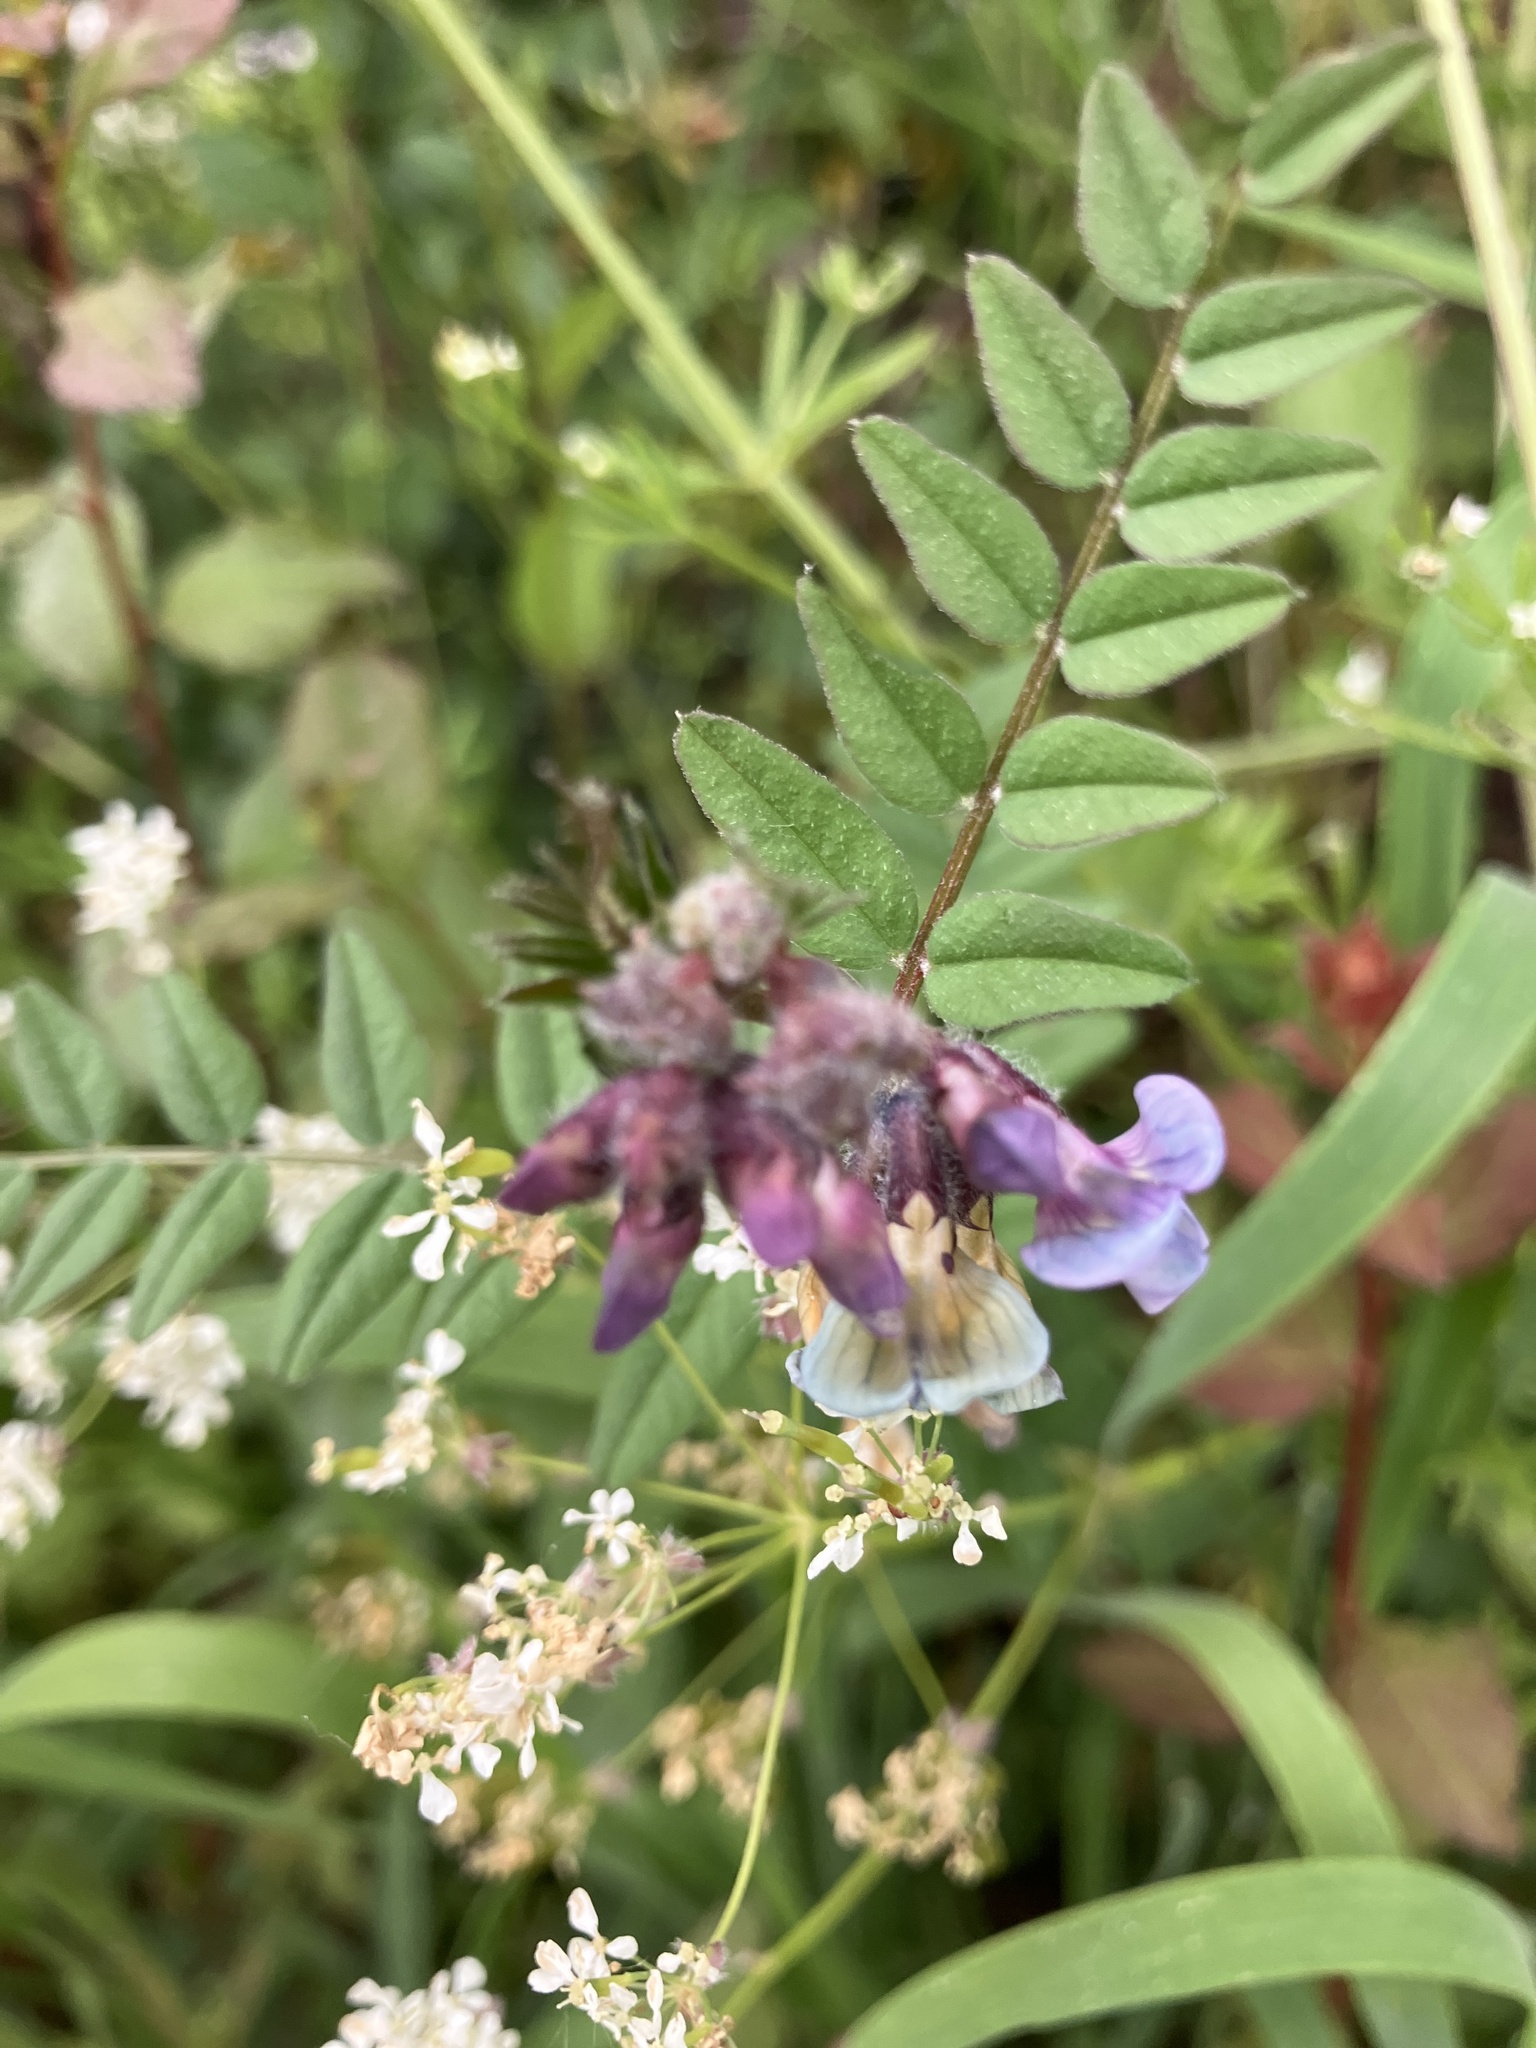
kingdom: Plantae
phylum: Tracheophyta
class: Magnoliopsida
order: Fabales
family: Fabaceae
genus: Vicia
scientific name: Vicia sepium
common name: Bush vetch
